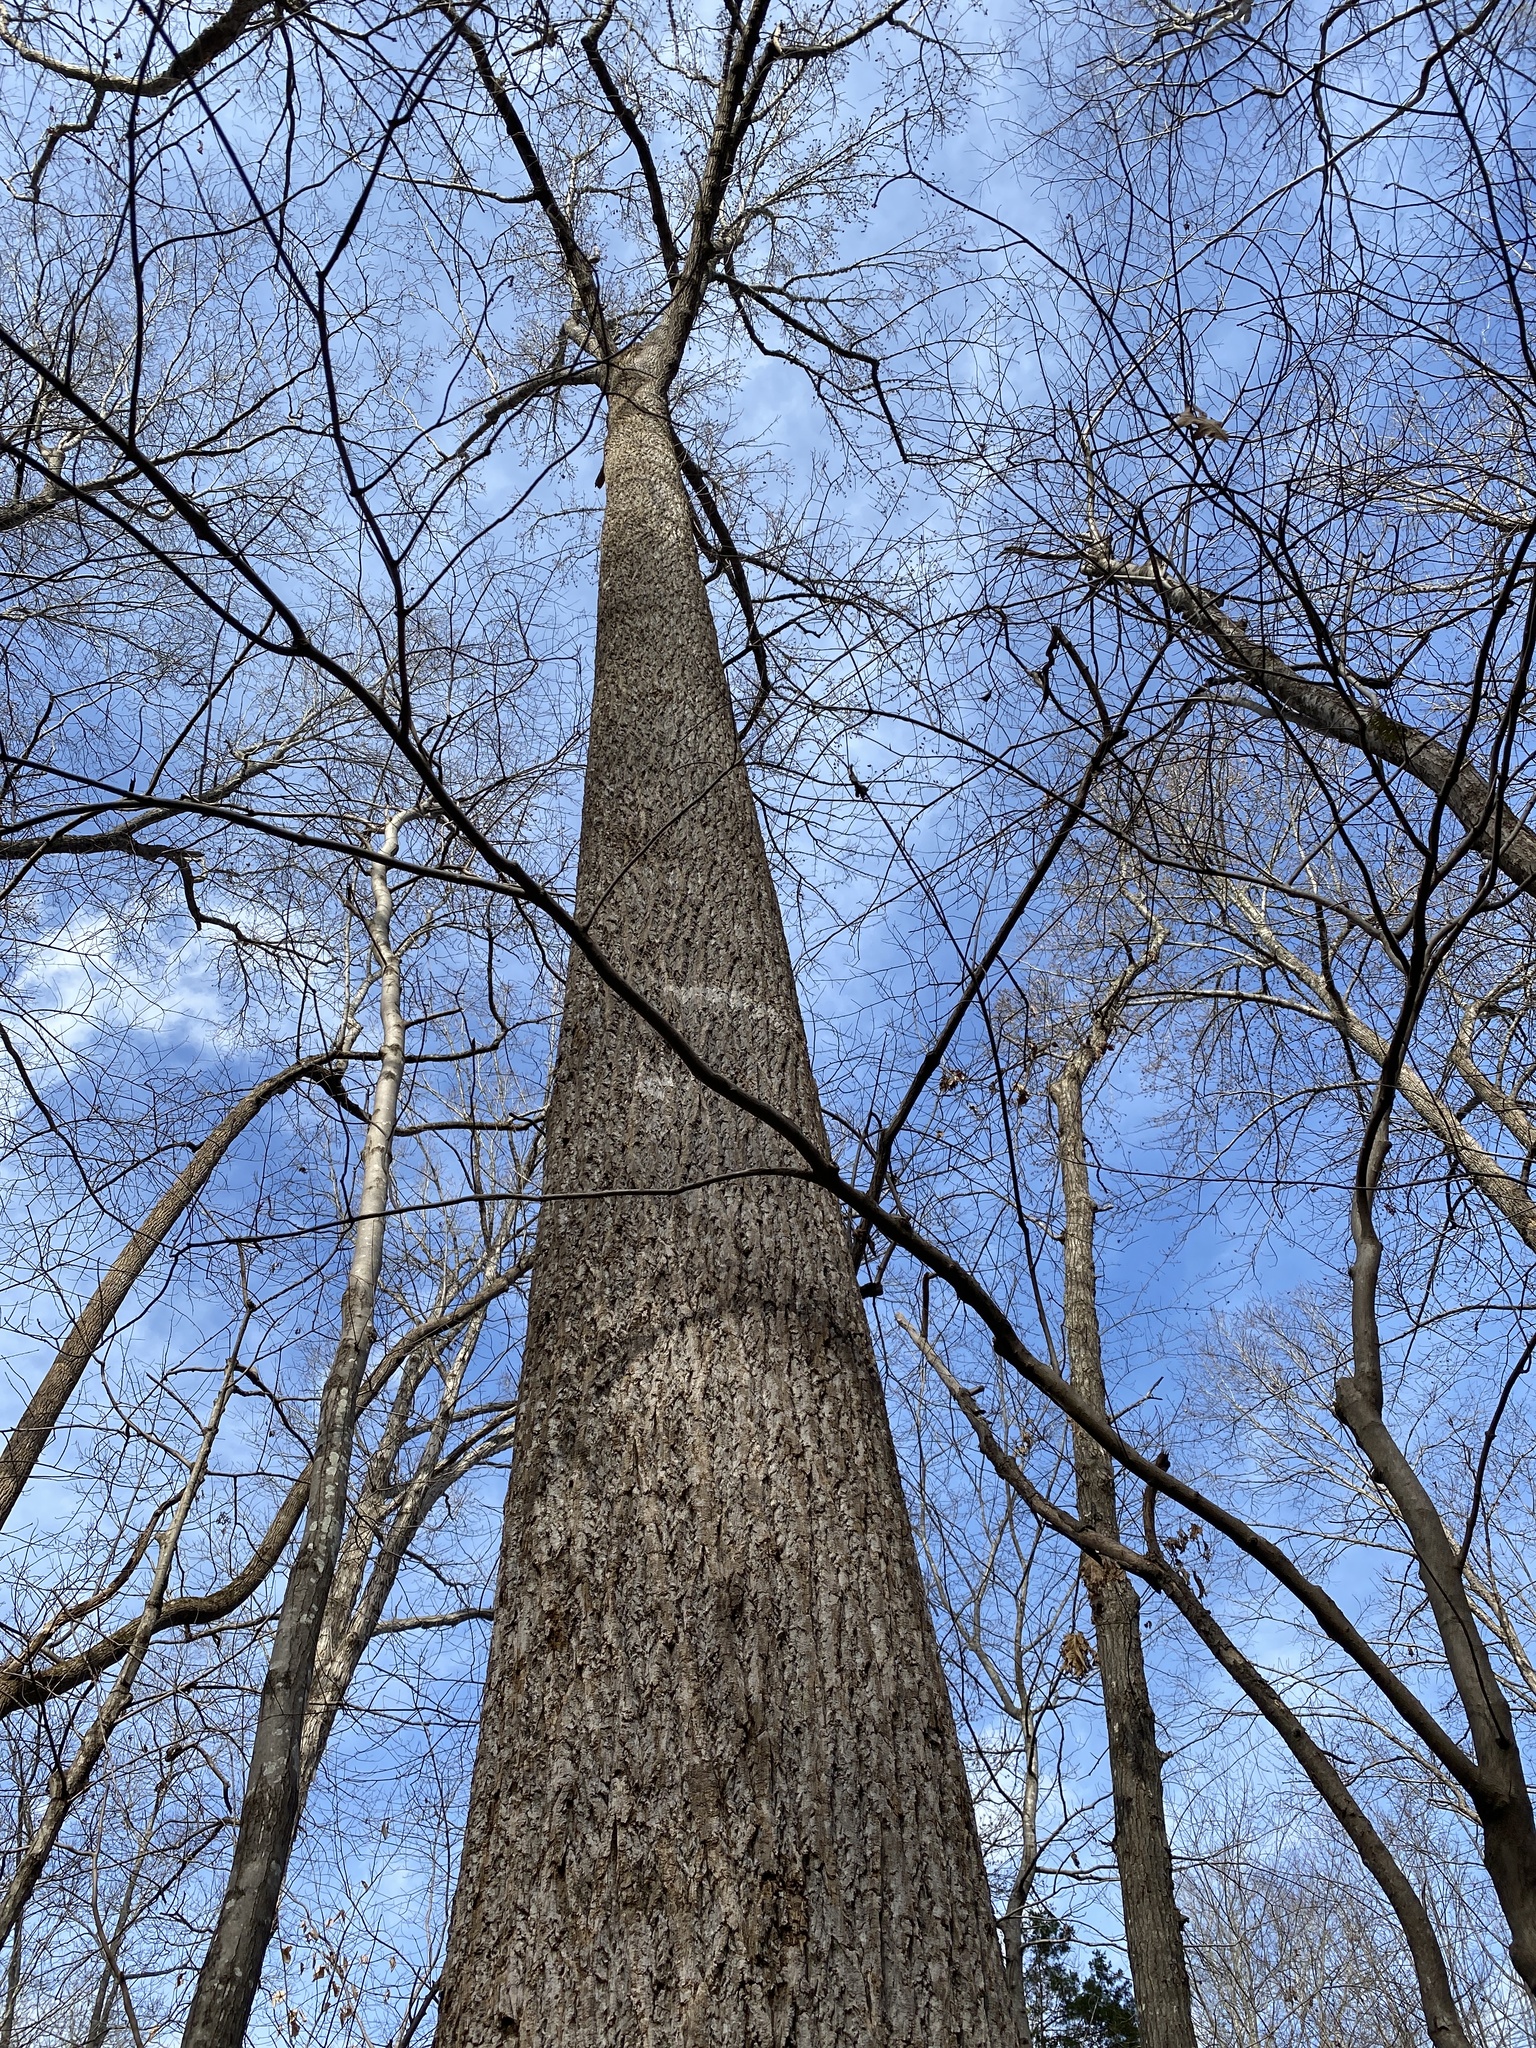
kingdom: Plantae
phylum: Tracheophyta
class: Magnoliopsida
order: Magnoliales
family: Magnoliaceae
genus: Liriodendron
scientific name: Liriodendron tulipifera
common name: Tulip tree
